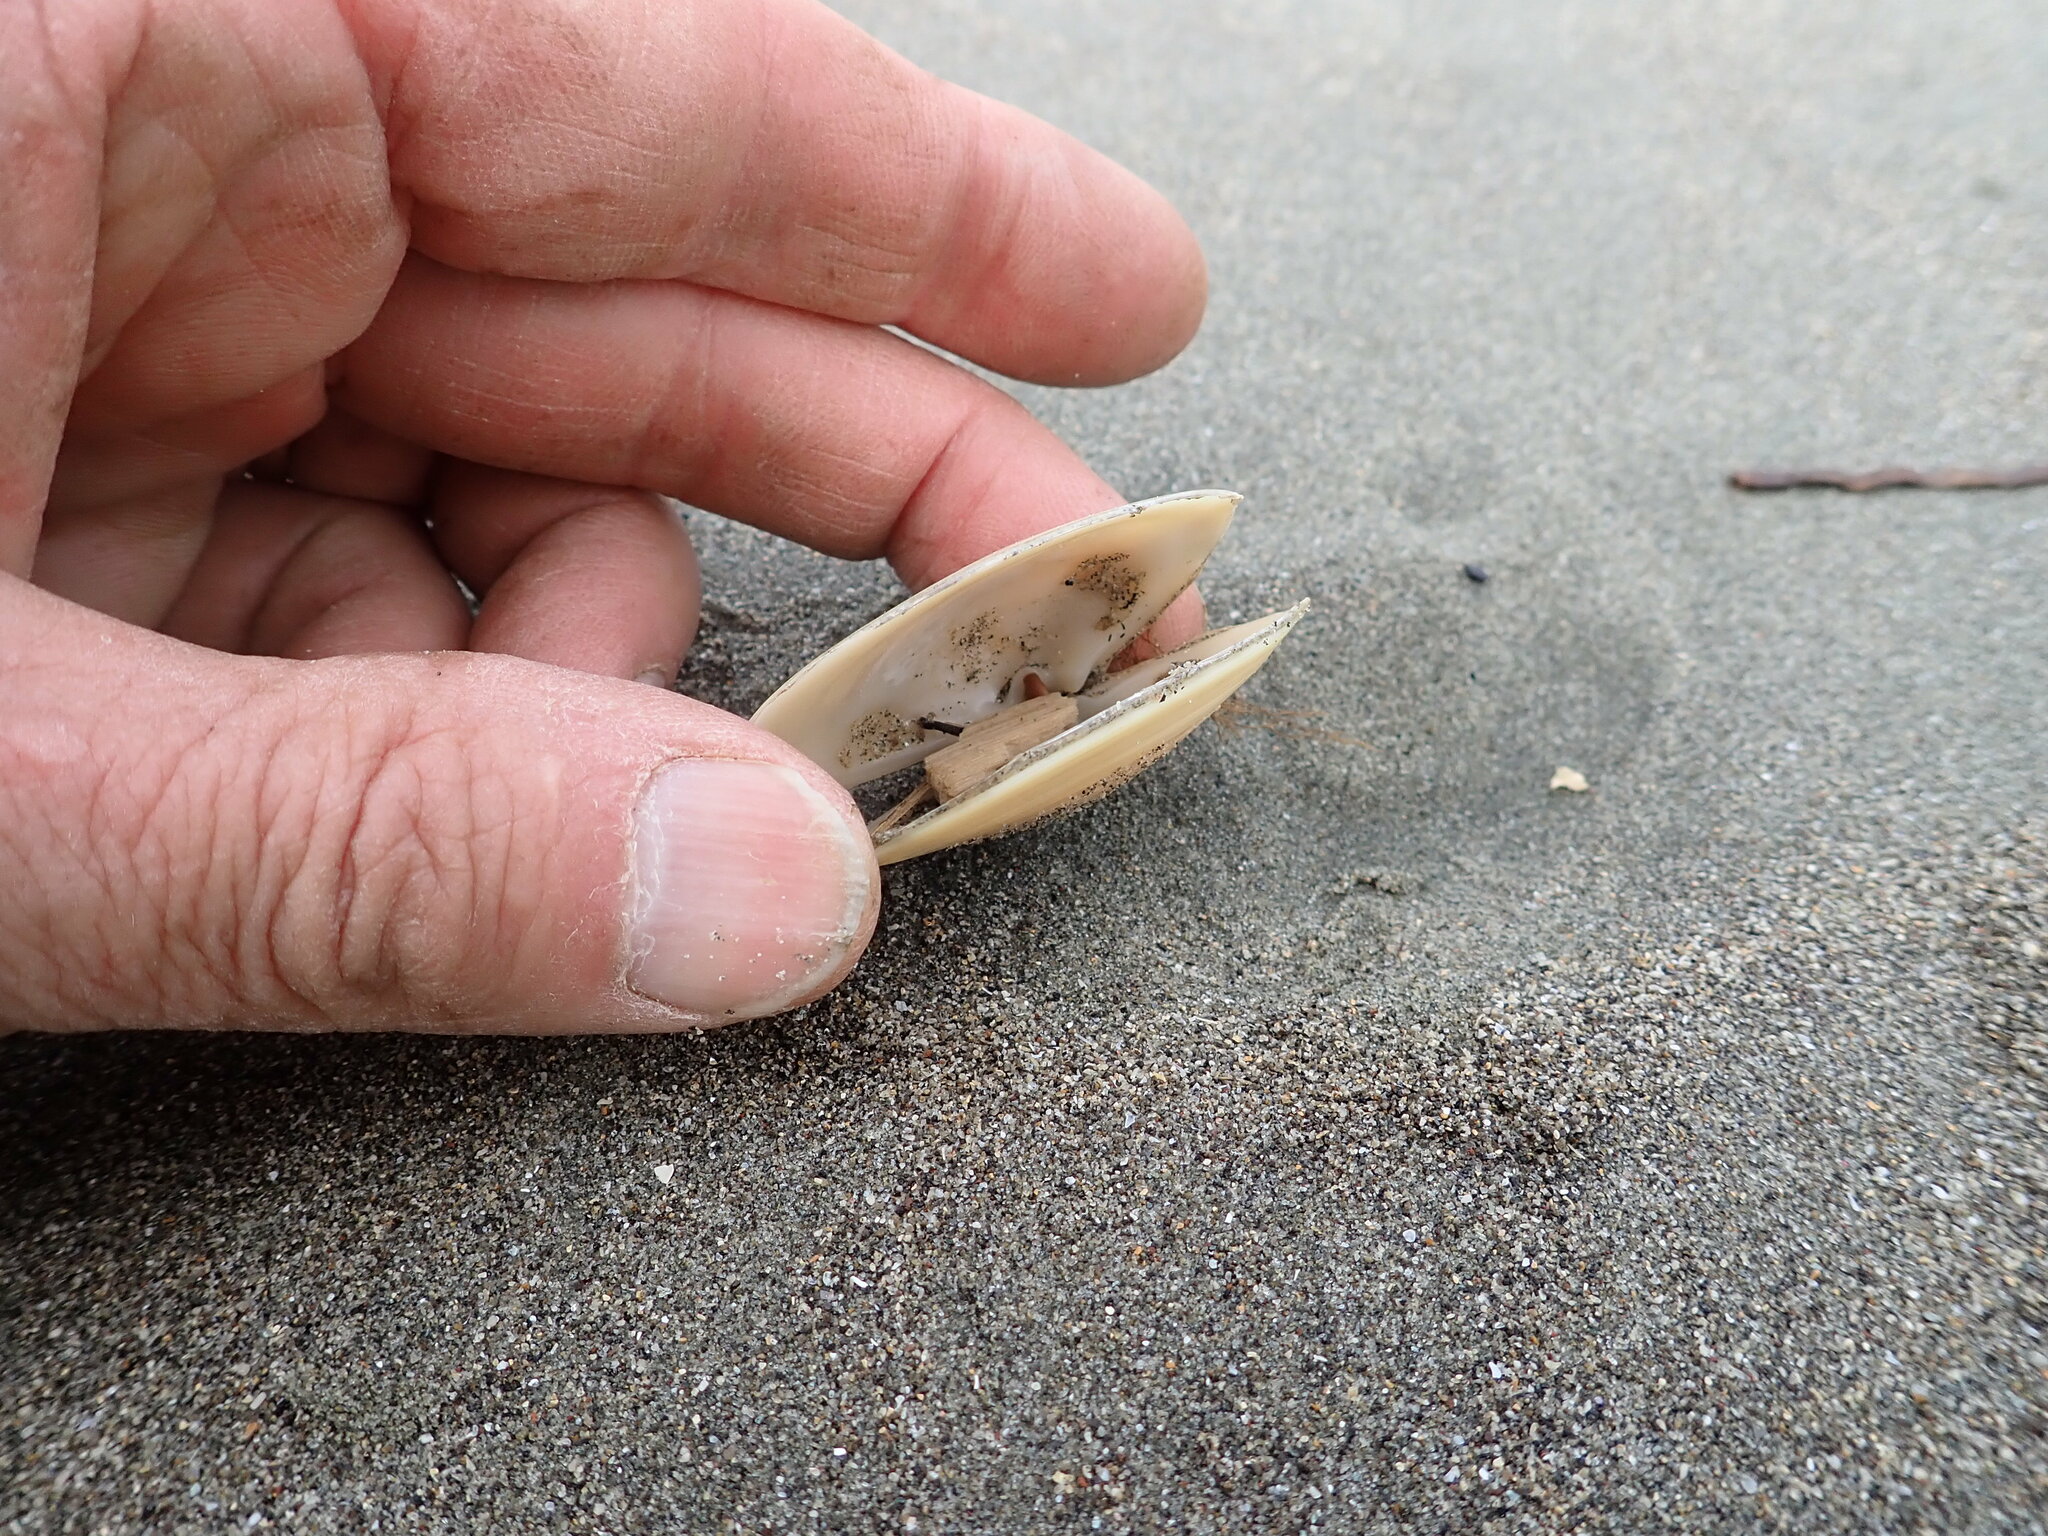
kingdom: Animalia
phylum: Mollusca
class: Bivalvia
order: Venerida
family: Mesodesmatidae
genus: Paphies
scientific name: Paphies donacina
